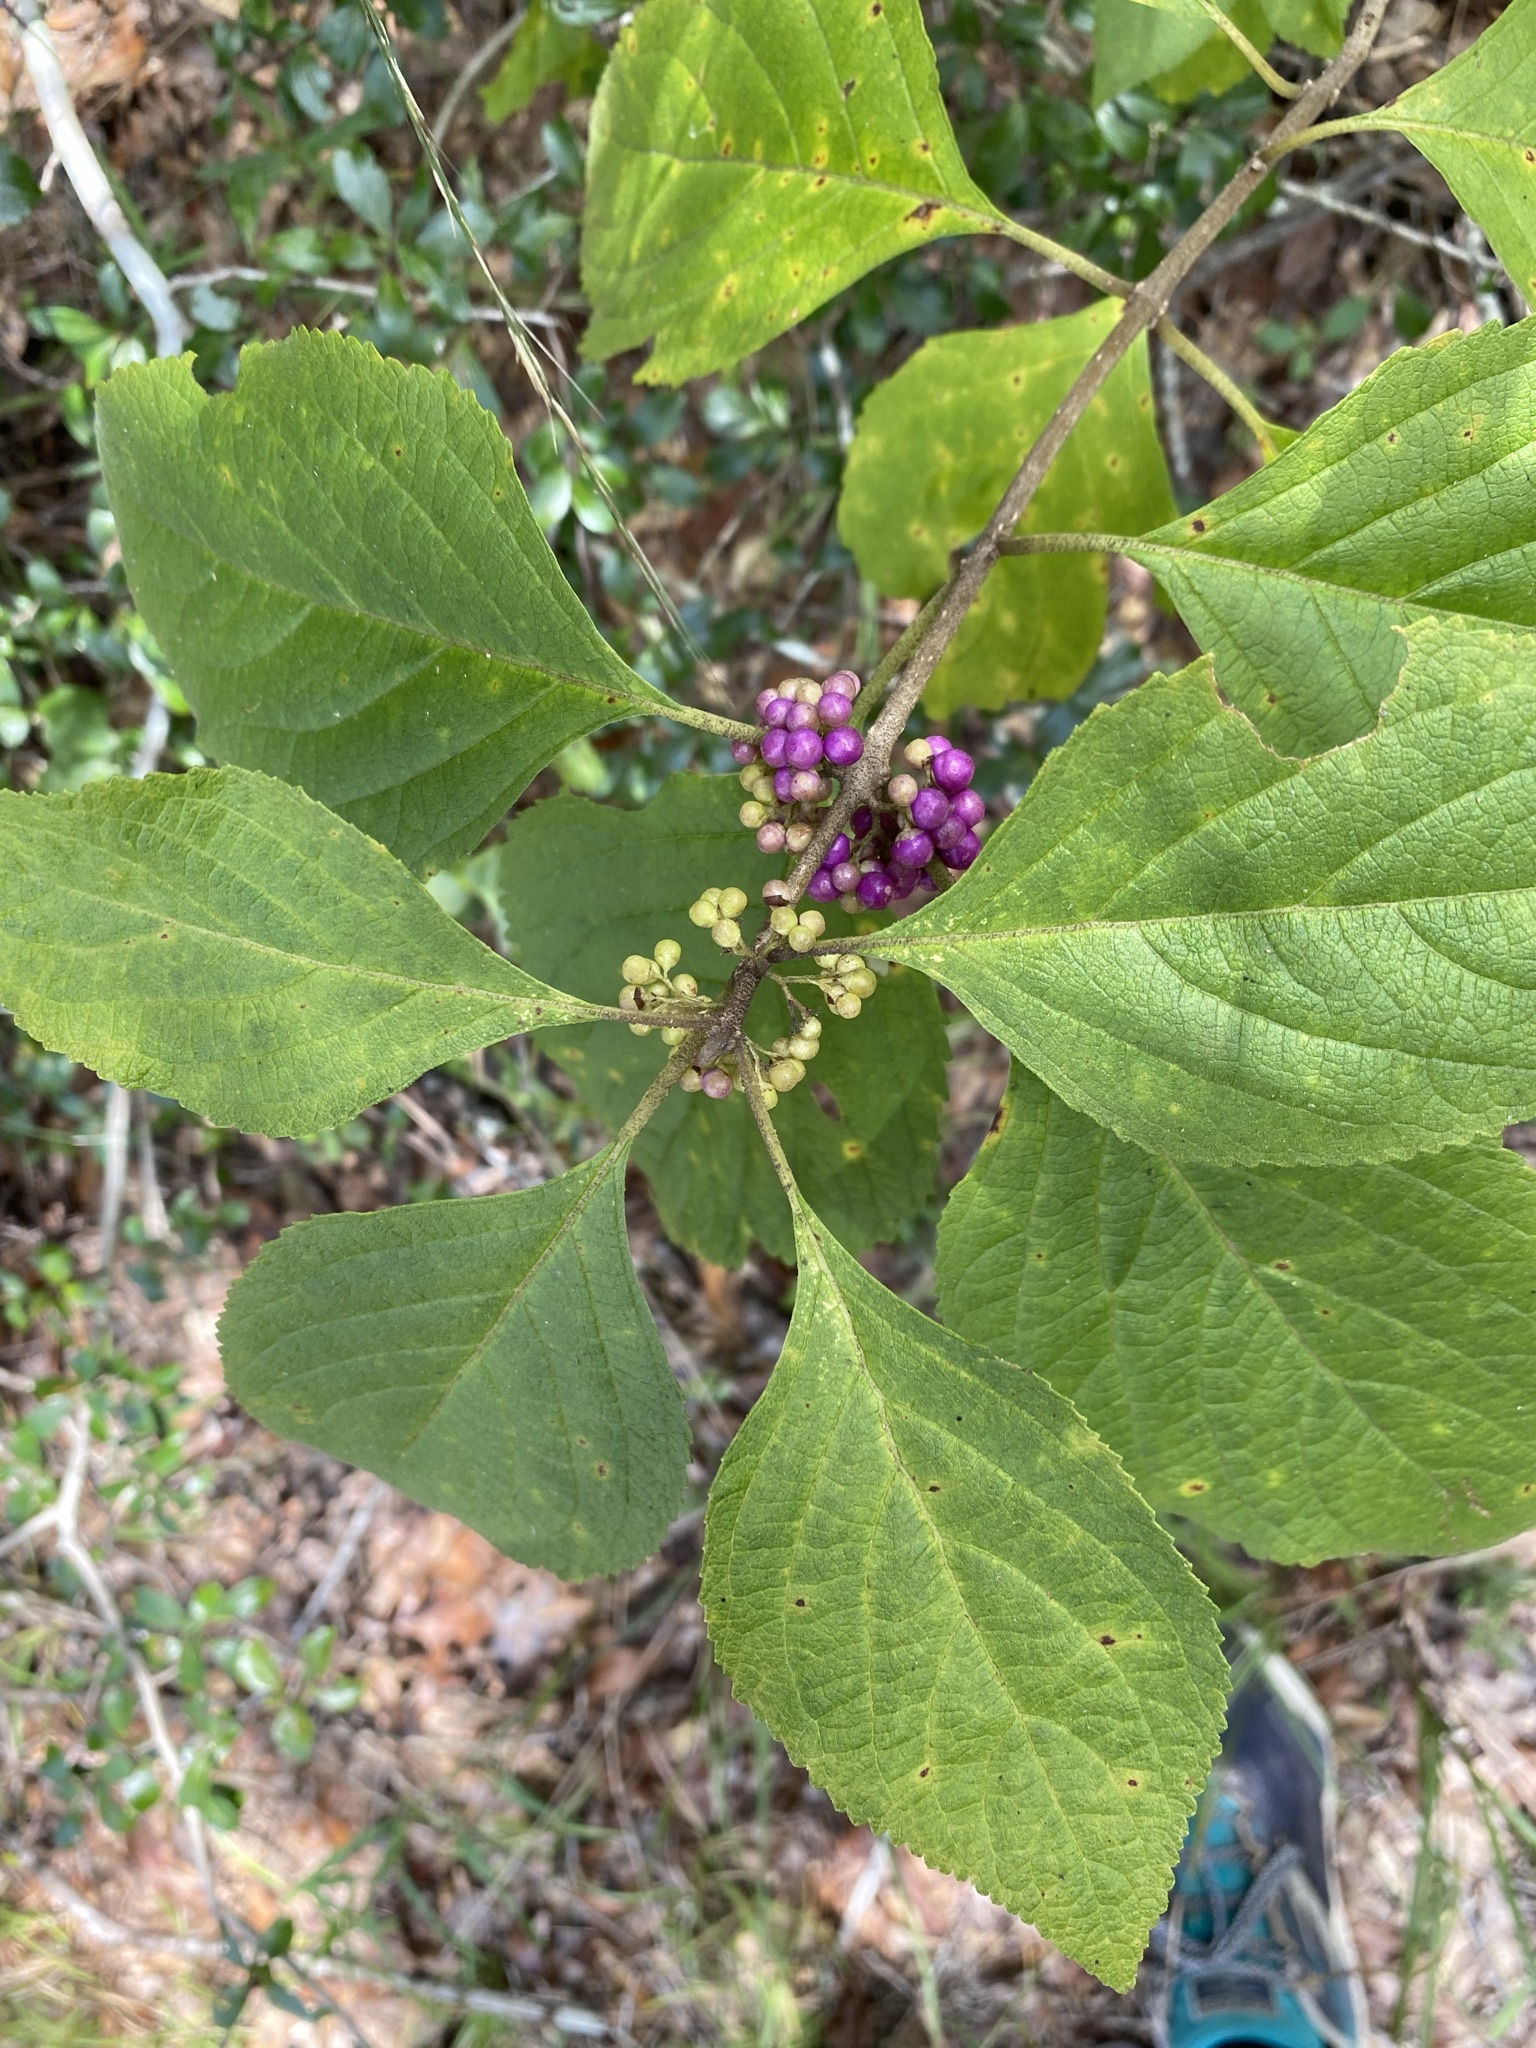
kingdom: Plantae
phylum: Tracheophyta
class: Magnoliopsida
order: Lamiales
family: Lamiaceae
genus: Callicarpa
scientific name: Callicarpa americana
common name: American beautyberry
